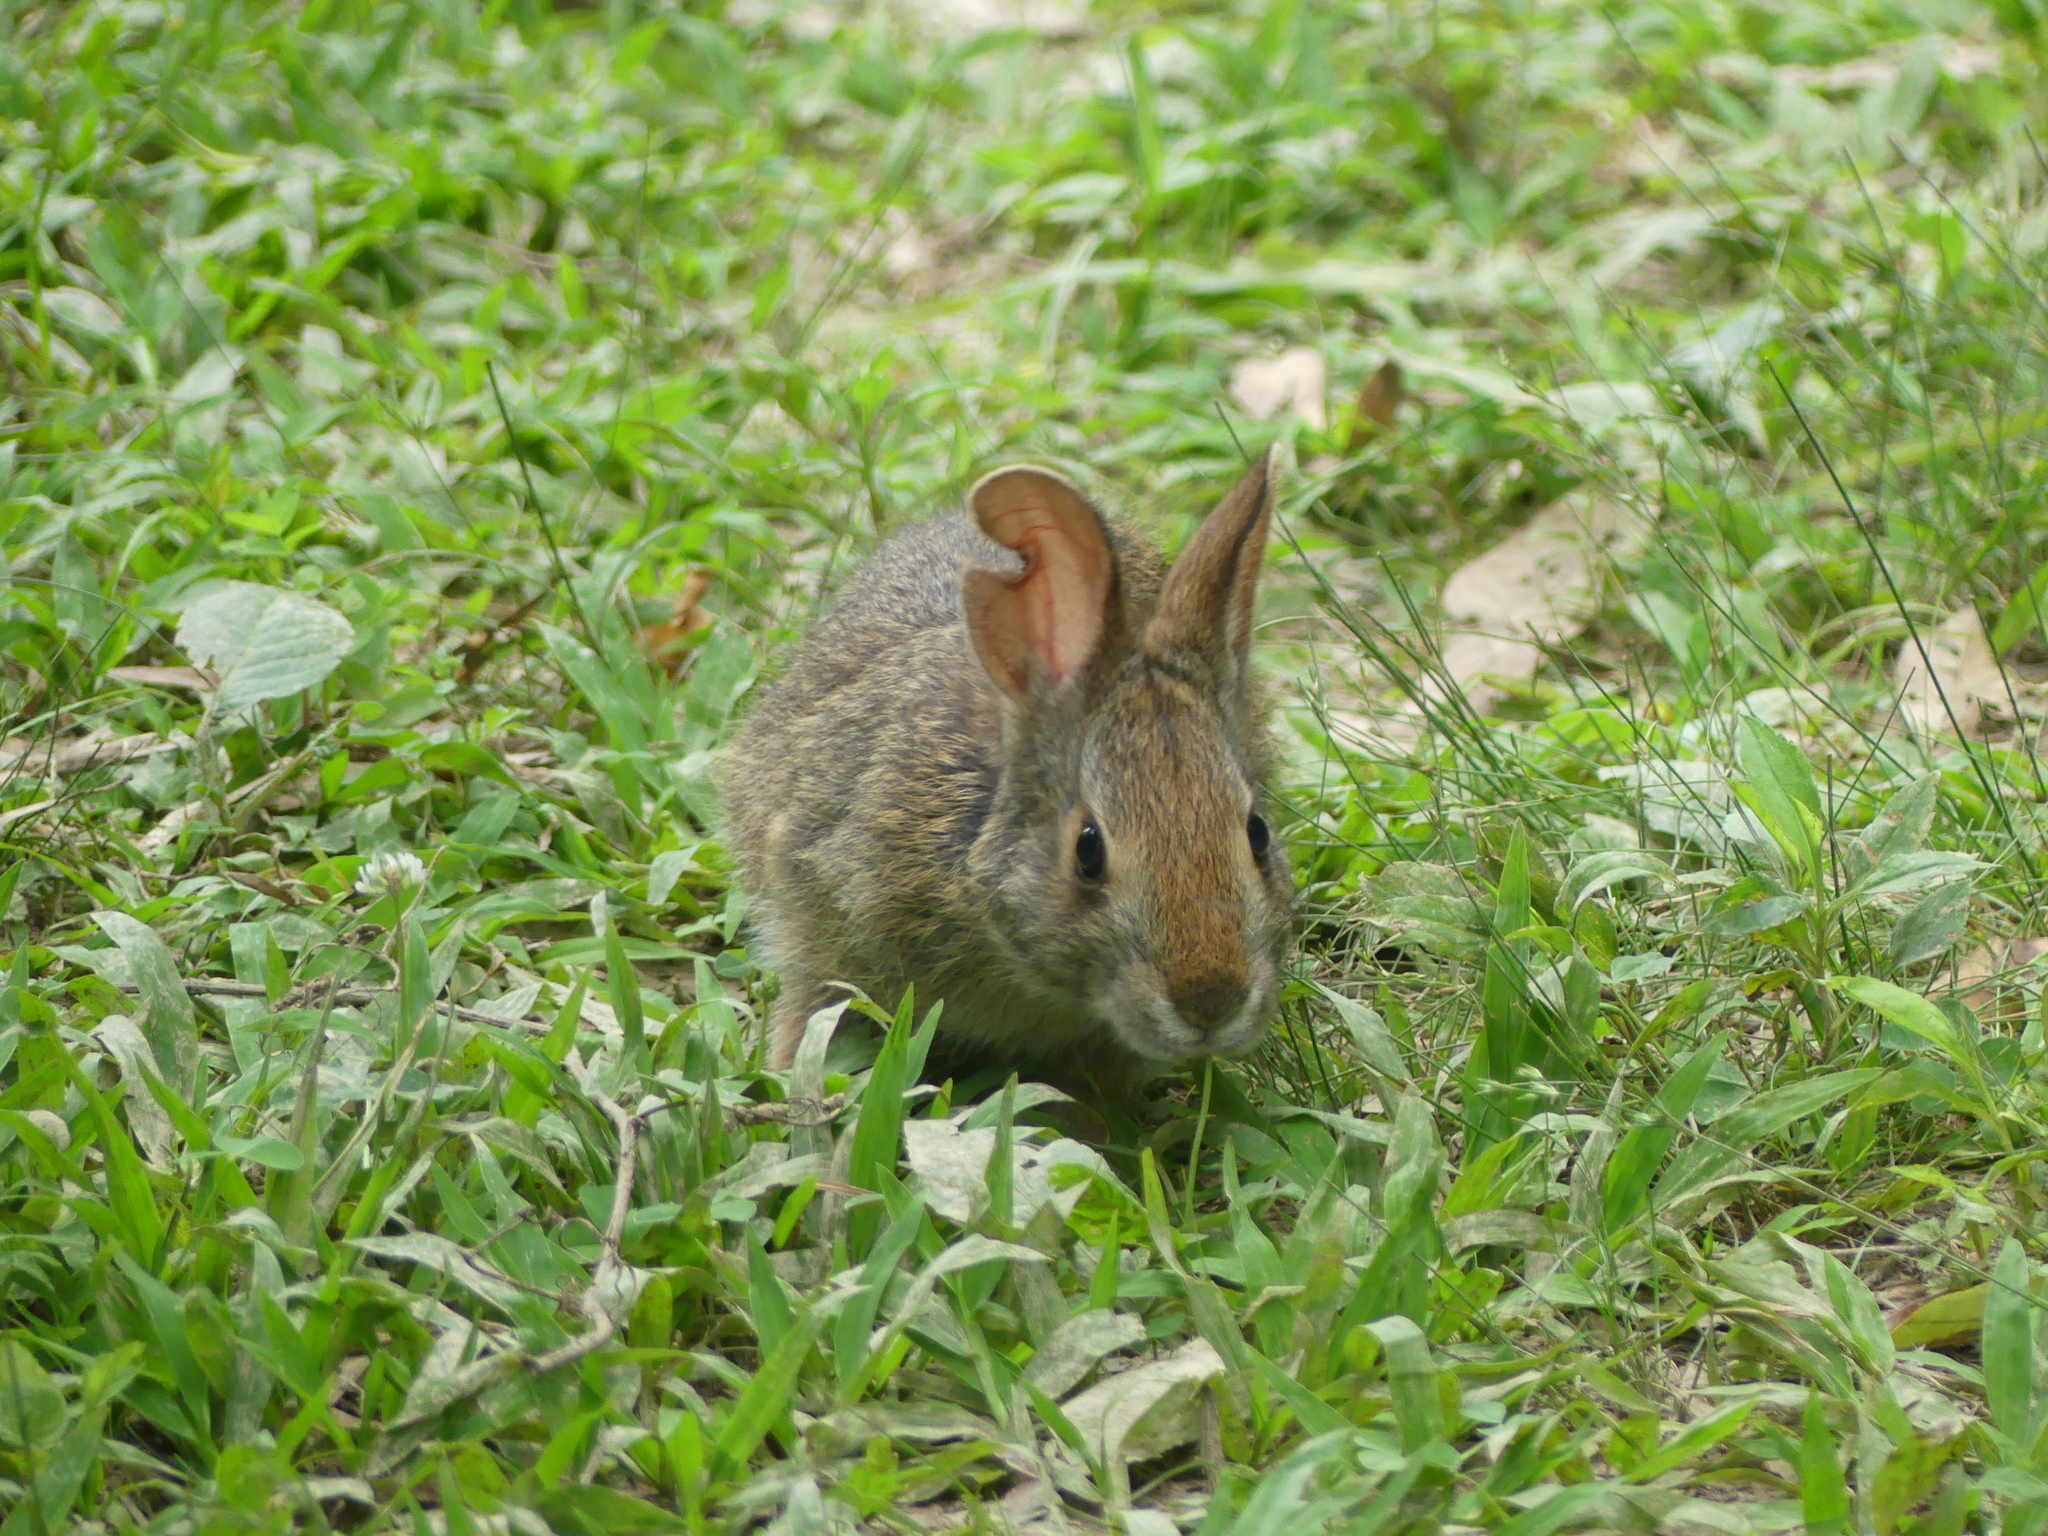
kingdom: Animalia
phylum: Chordata
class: Mammalia
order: Lagomorpha
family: Leporidae
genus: Sylvilagus
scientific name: Sylvilagus aquaticus
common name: Swamp rabbit
